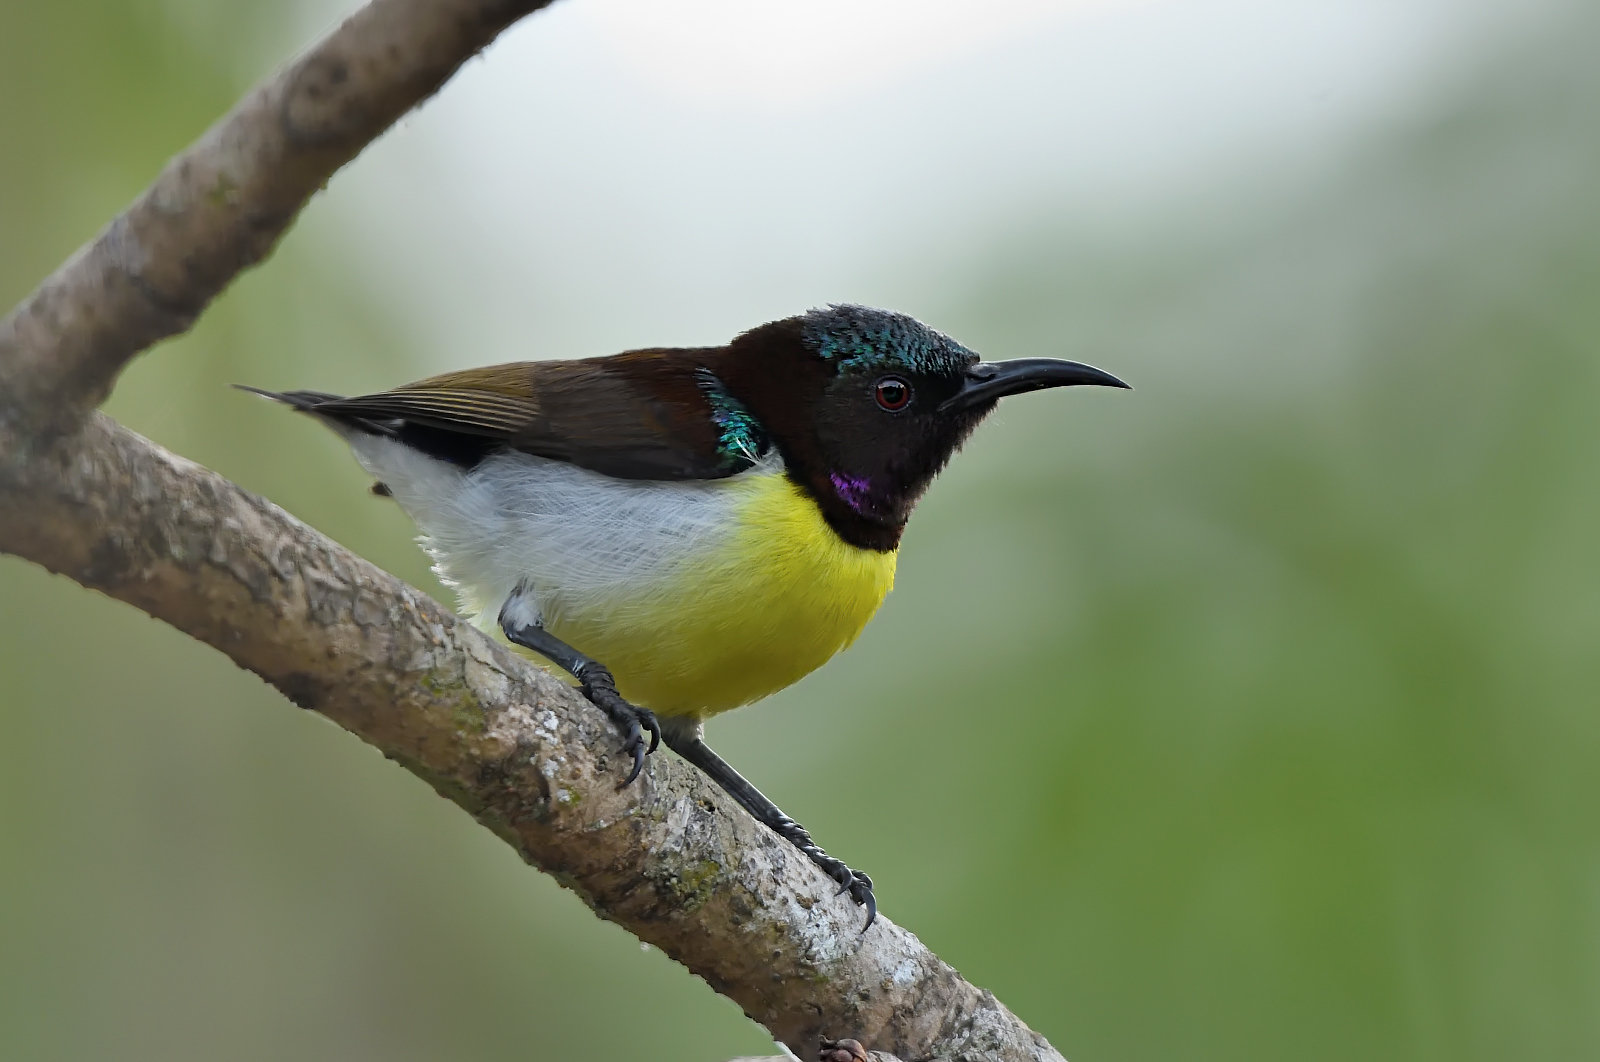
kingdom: Animalia
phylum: Chordata
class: Aves
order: Passeriformes
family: Nectariniidae
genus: Leptocoma
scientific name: Leptocoma zeylonica
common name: Purple-rumped sunbird
